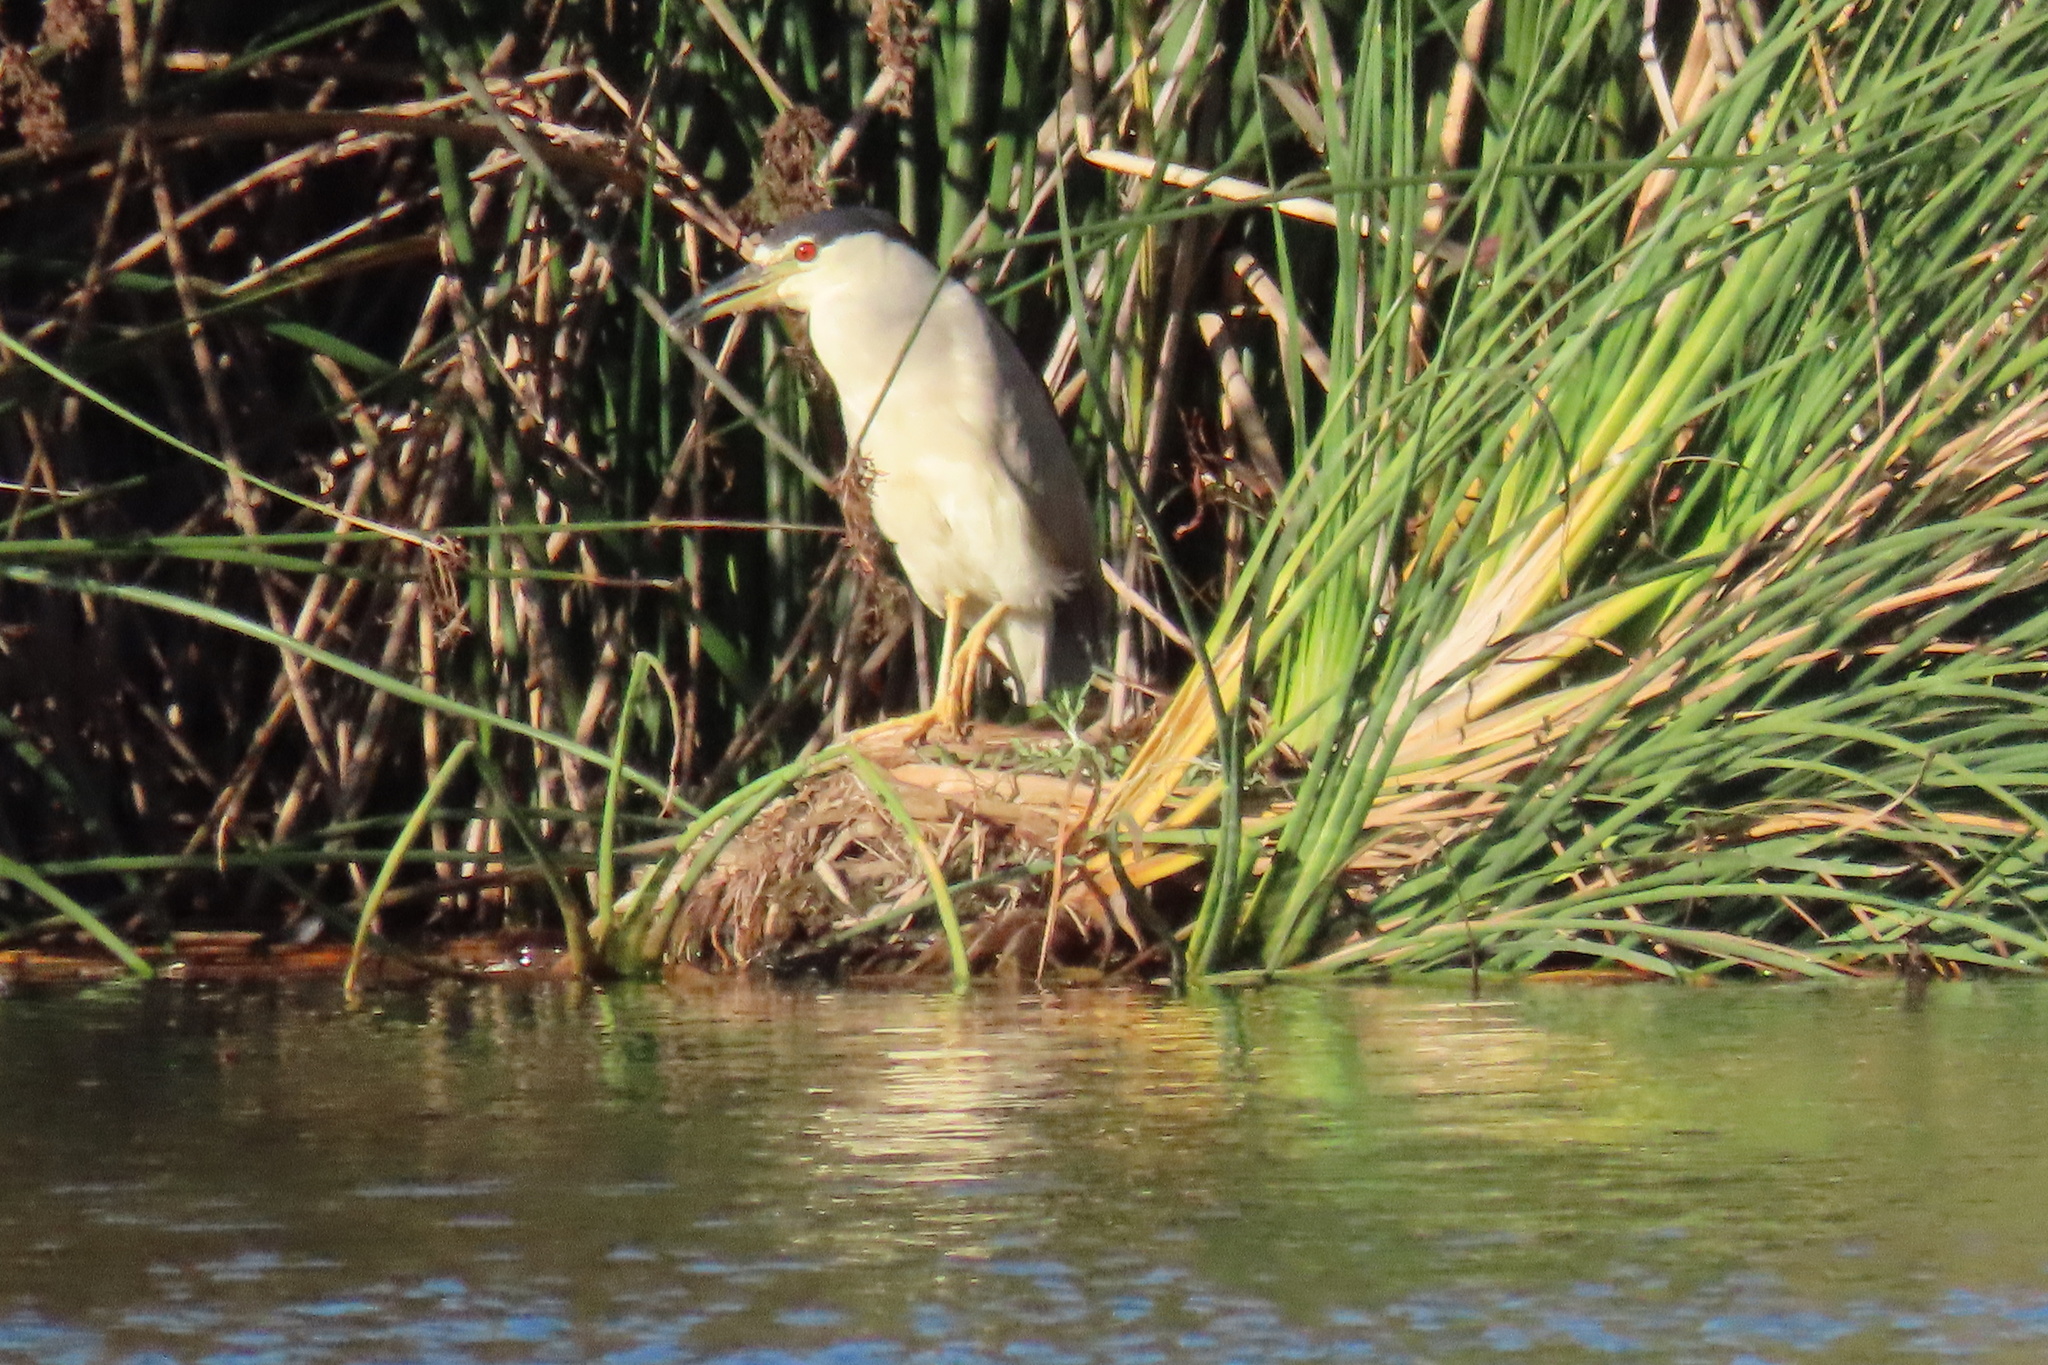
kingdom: Animalia
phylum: Chordata
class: Aves
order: Pelecaniformes
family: Ardeidae
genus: Nycticorax
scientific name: Nycticorax nycticorax
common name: Black-crowned night heron
